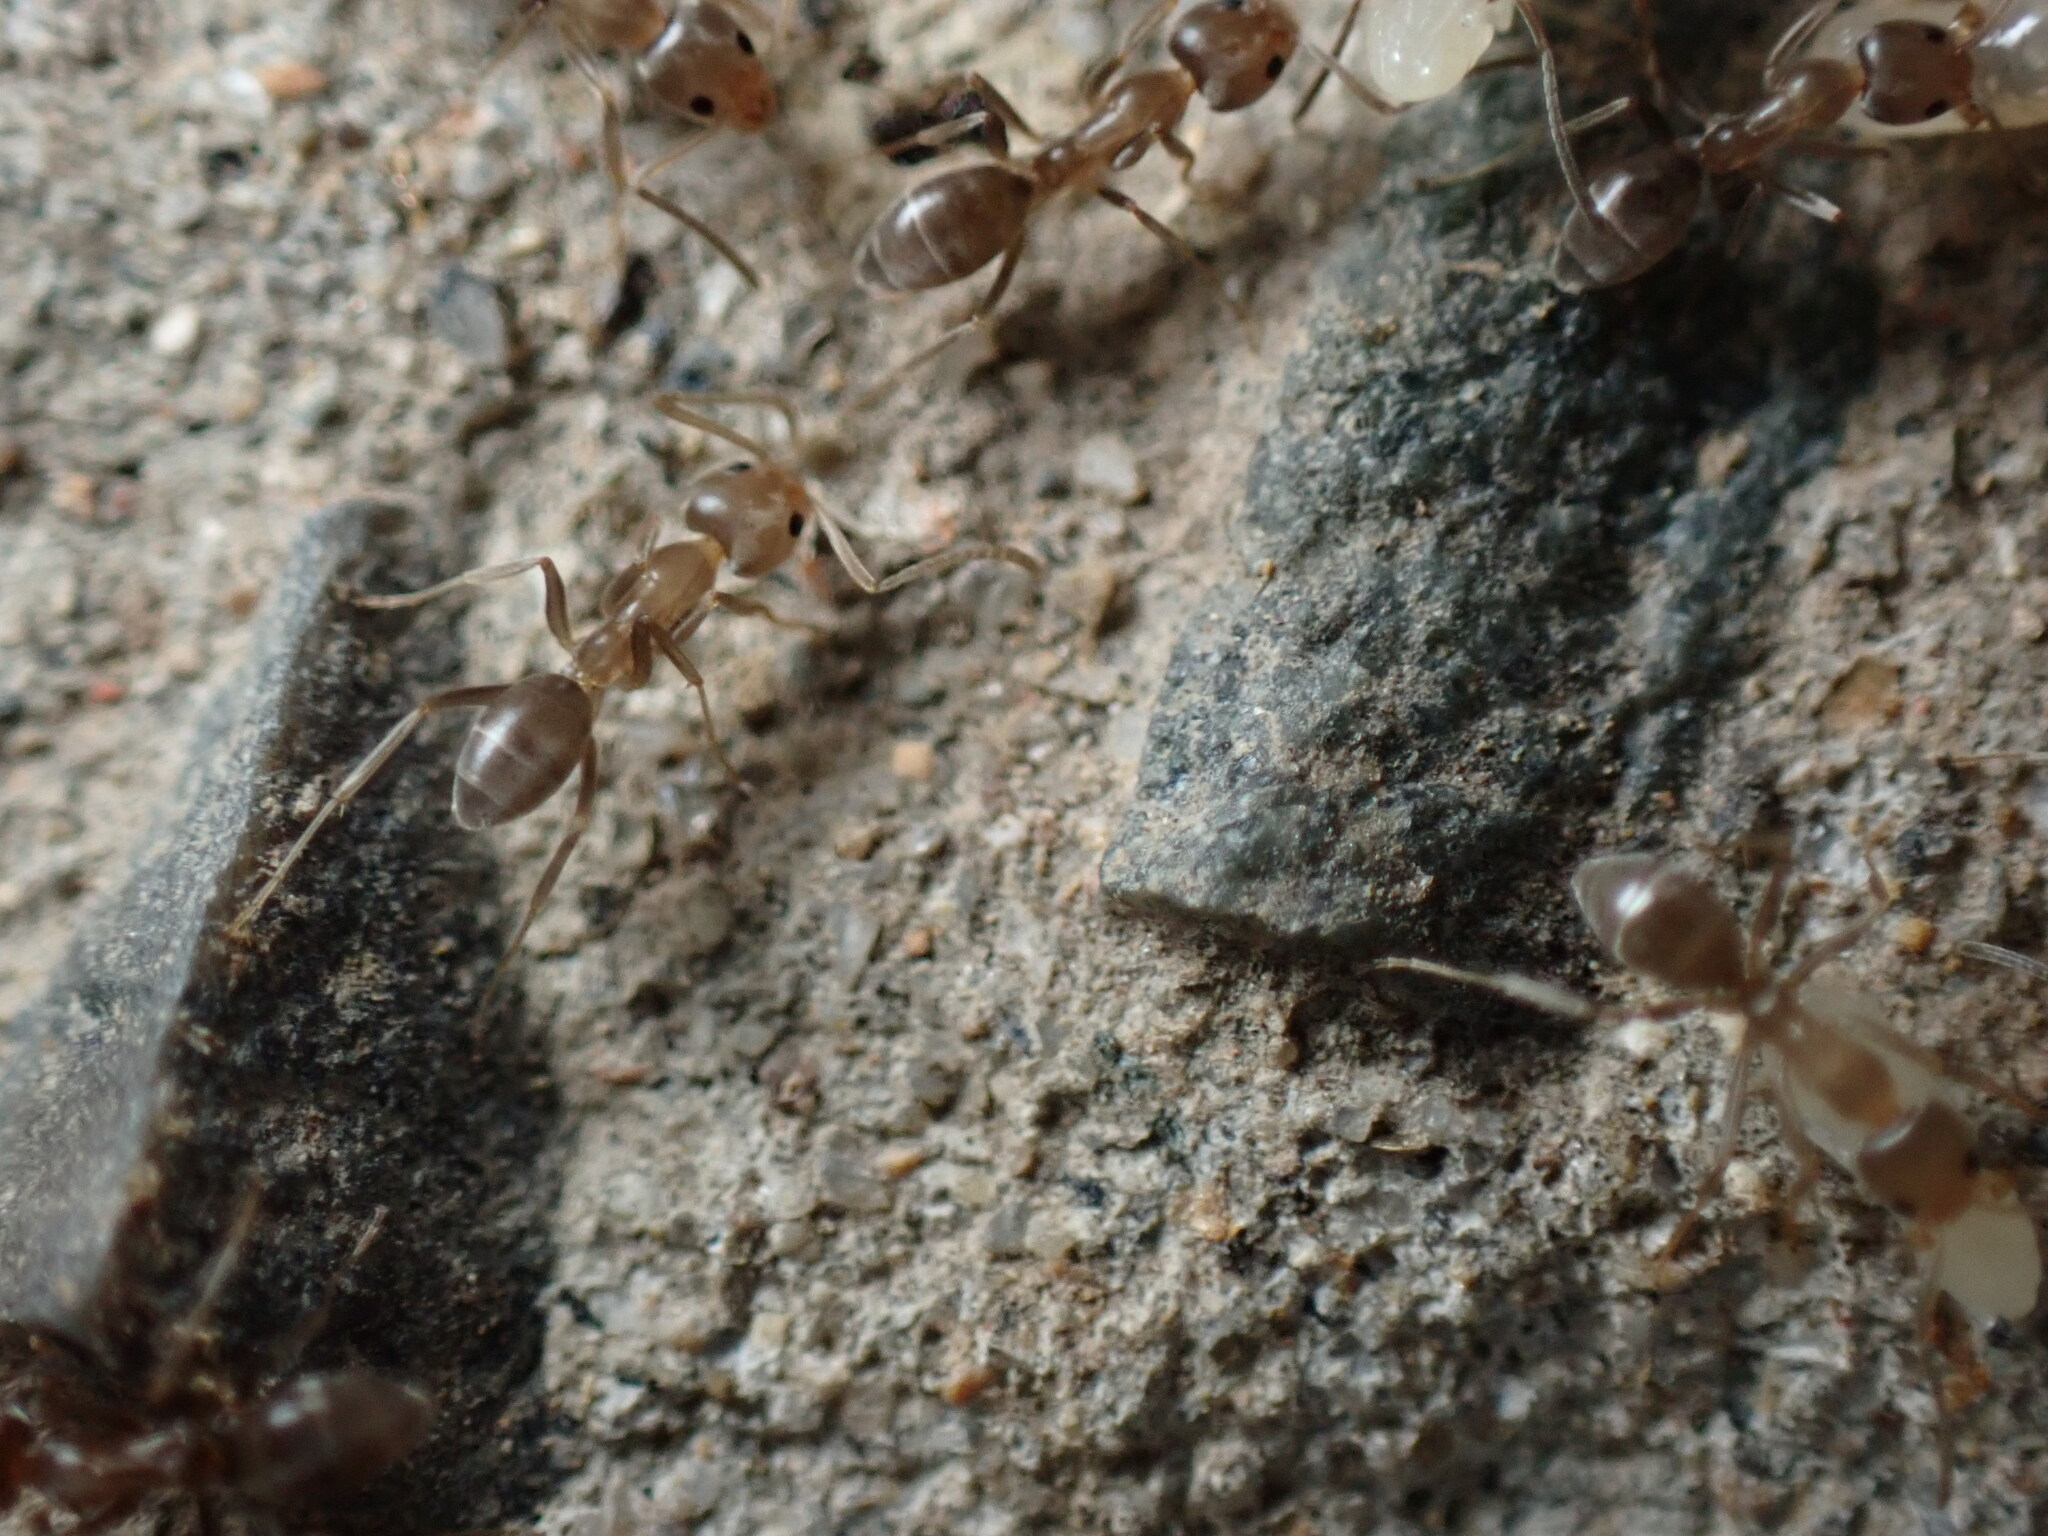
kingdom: Animalia
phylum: Arthropoda
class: Insecta
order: Hymenoptera
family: Formicidae
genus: Linepithema
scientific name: Linepithema humile
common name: Argentine ant
